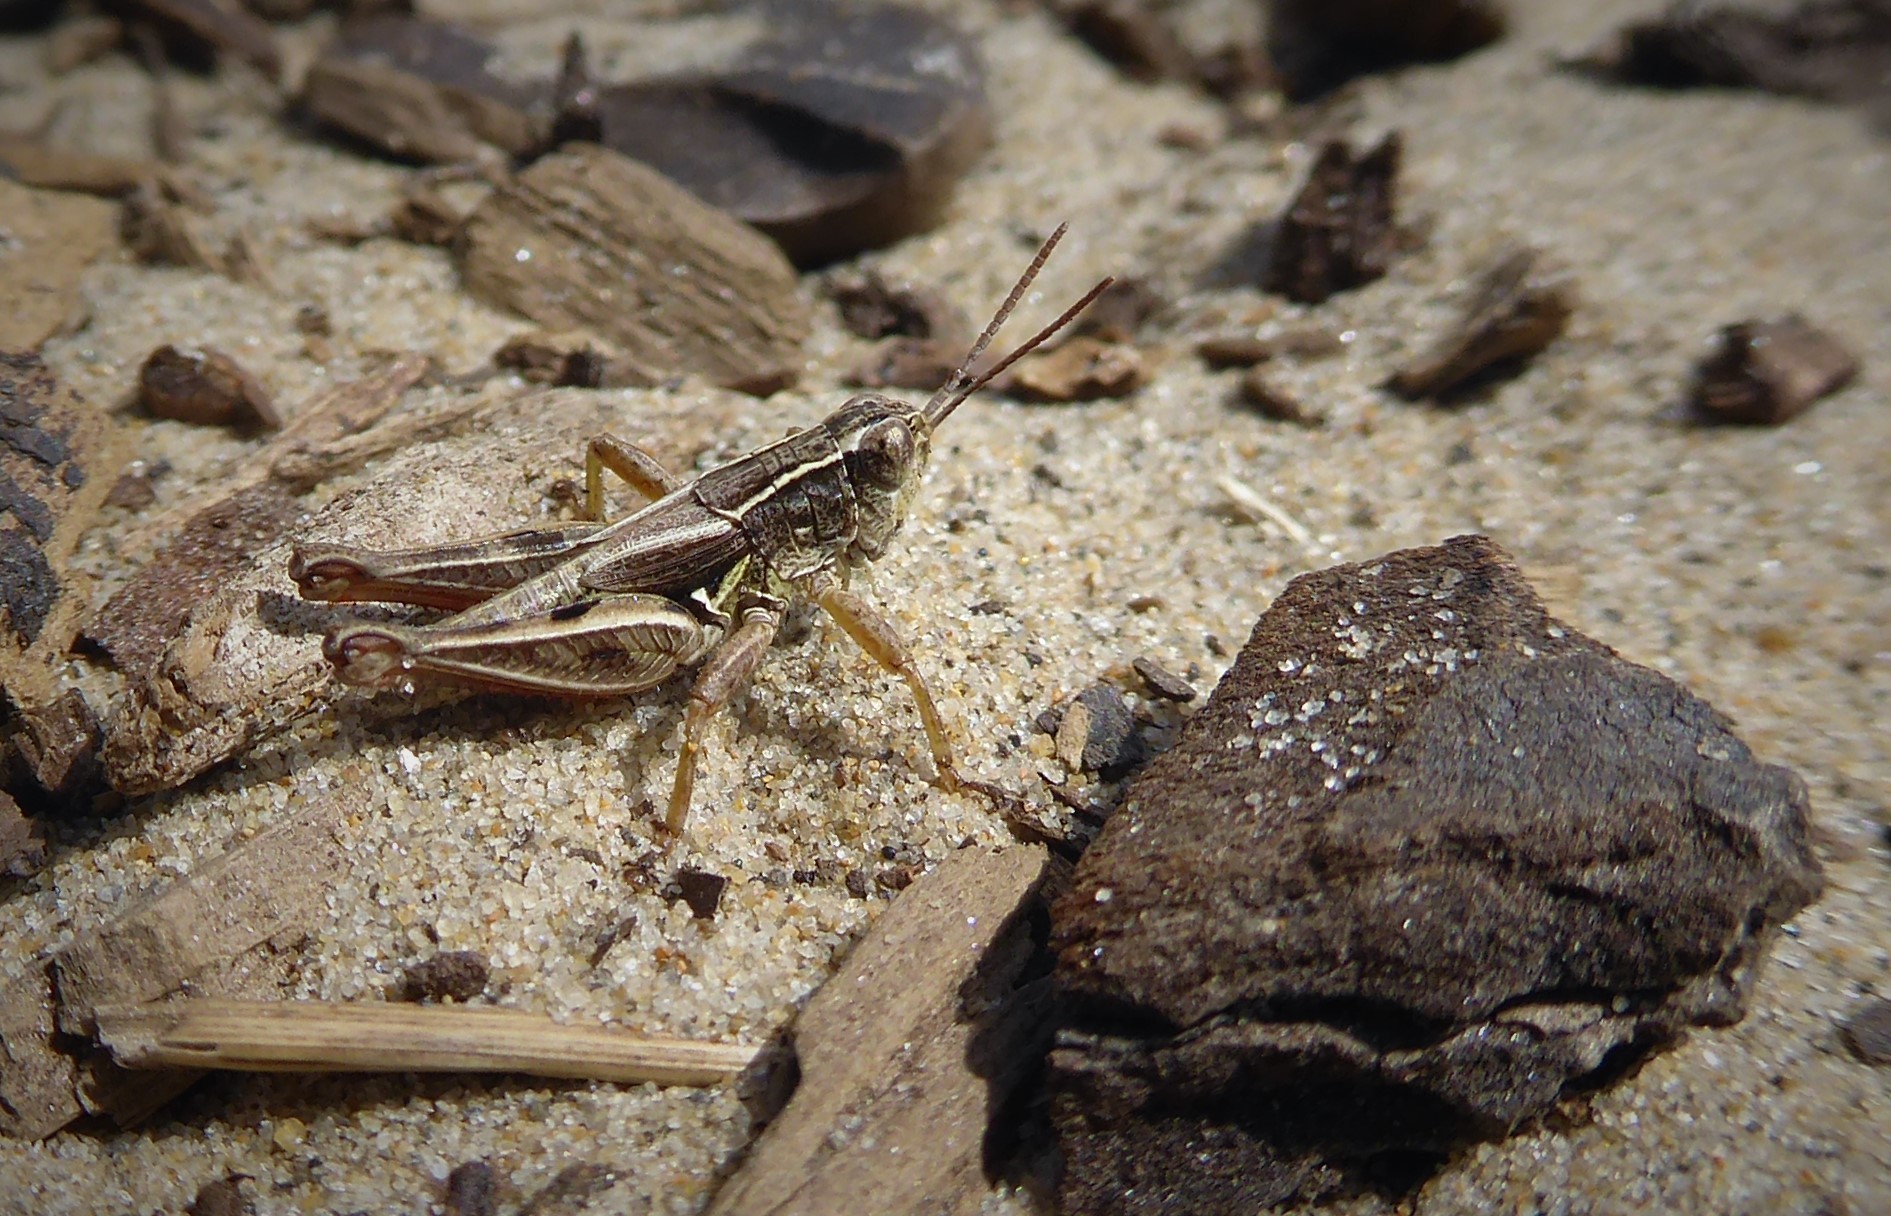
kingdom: Animalia
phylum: Arthropoda
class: Insecta
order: Orthoptera
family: Acrididae
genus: Phaulacridium
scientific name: Phaulacridium marginale
